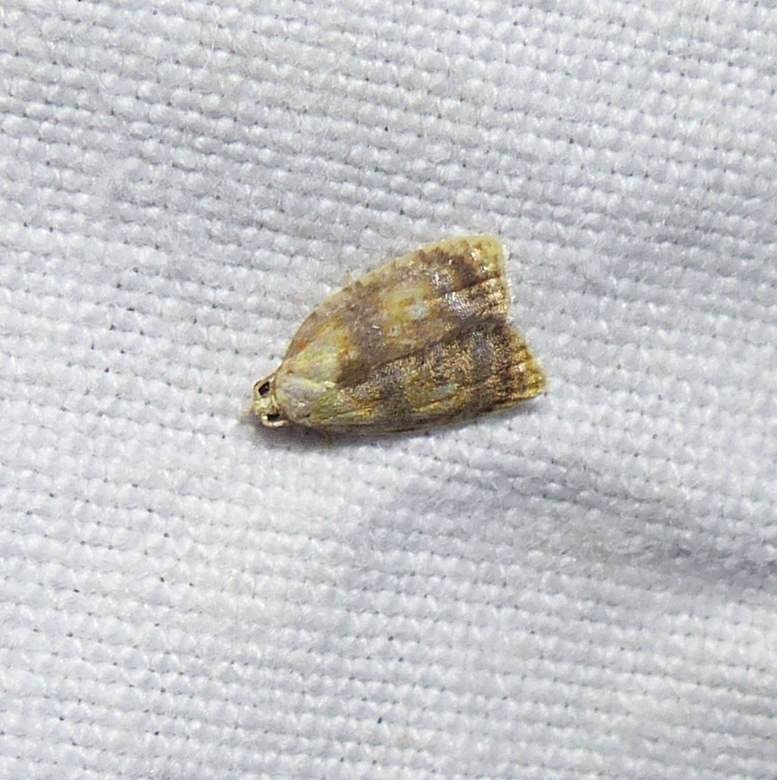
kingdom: Animalia
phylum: Arthropoda
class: Insecta
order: Lepidoptera
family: Tortricidae
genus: Acleris
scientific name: Acleris curvalana
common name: Blueberry leaftier moth
